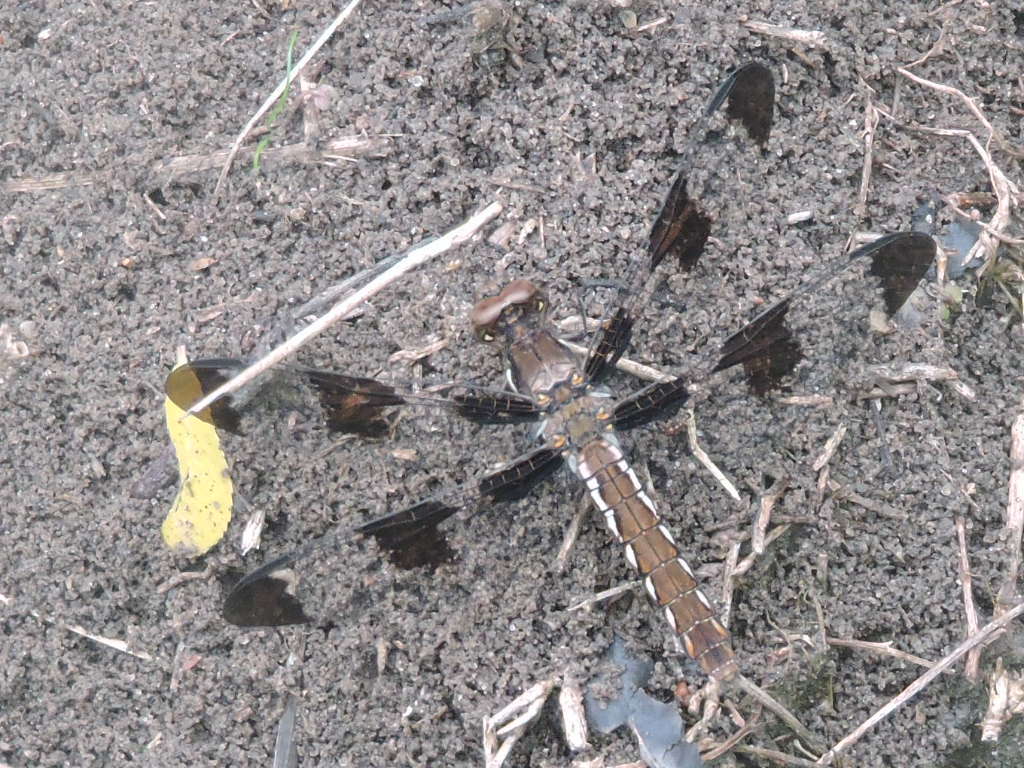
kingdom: Animalia
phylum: Arthropoda
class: Insecta
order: Odonata
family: Libellulidae
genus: Plathemis
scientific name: Plathemis lydia
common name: Common whitetail
